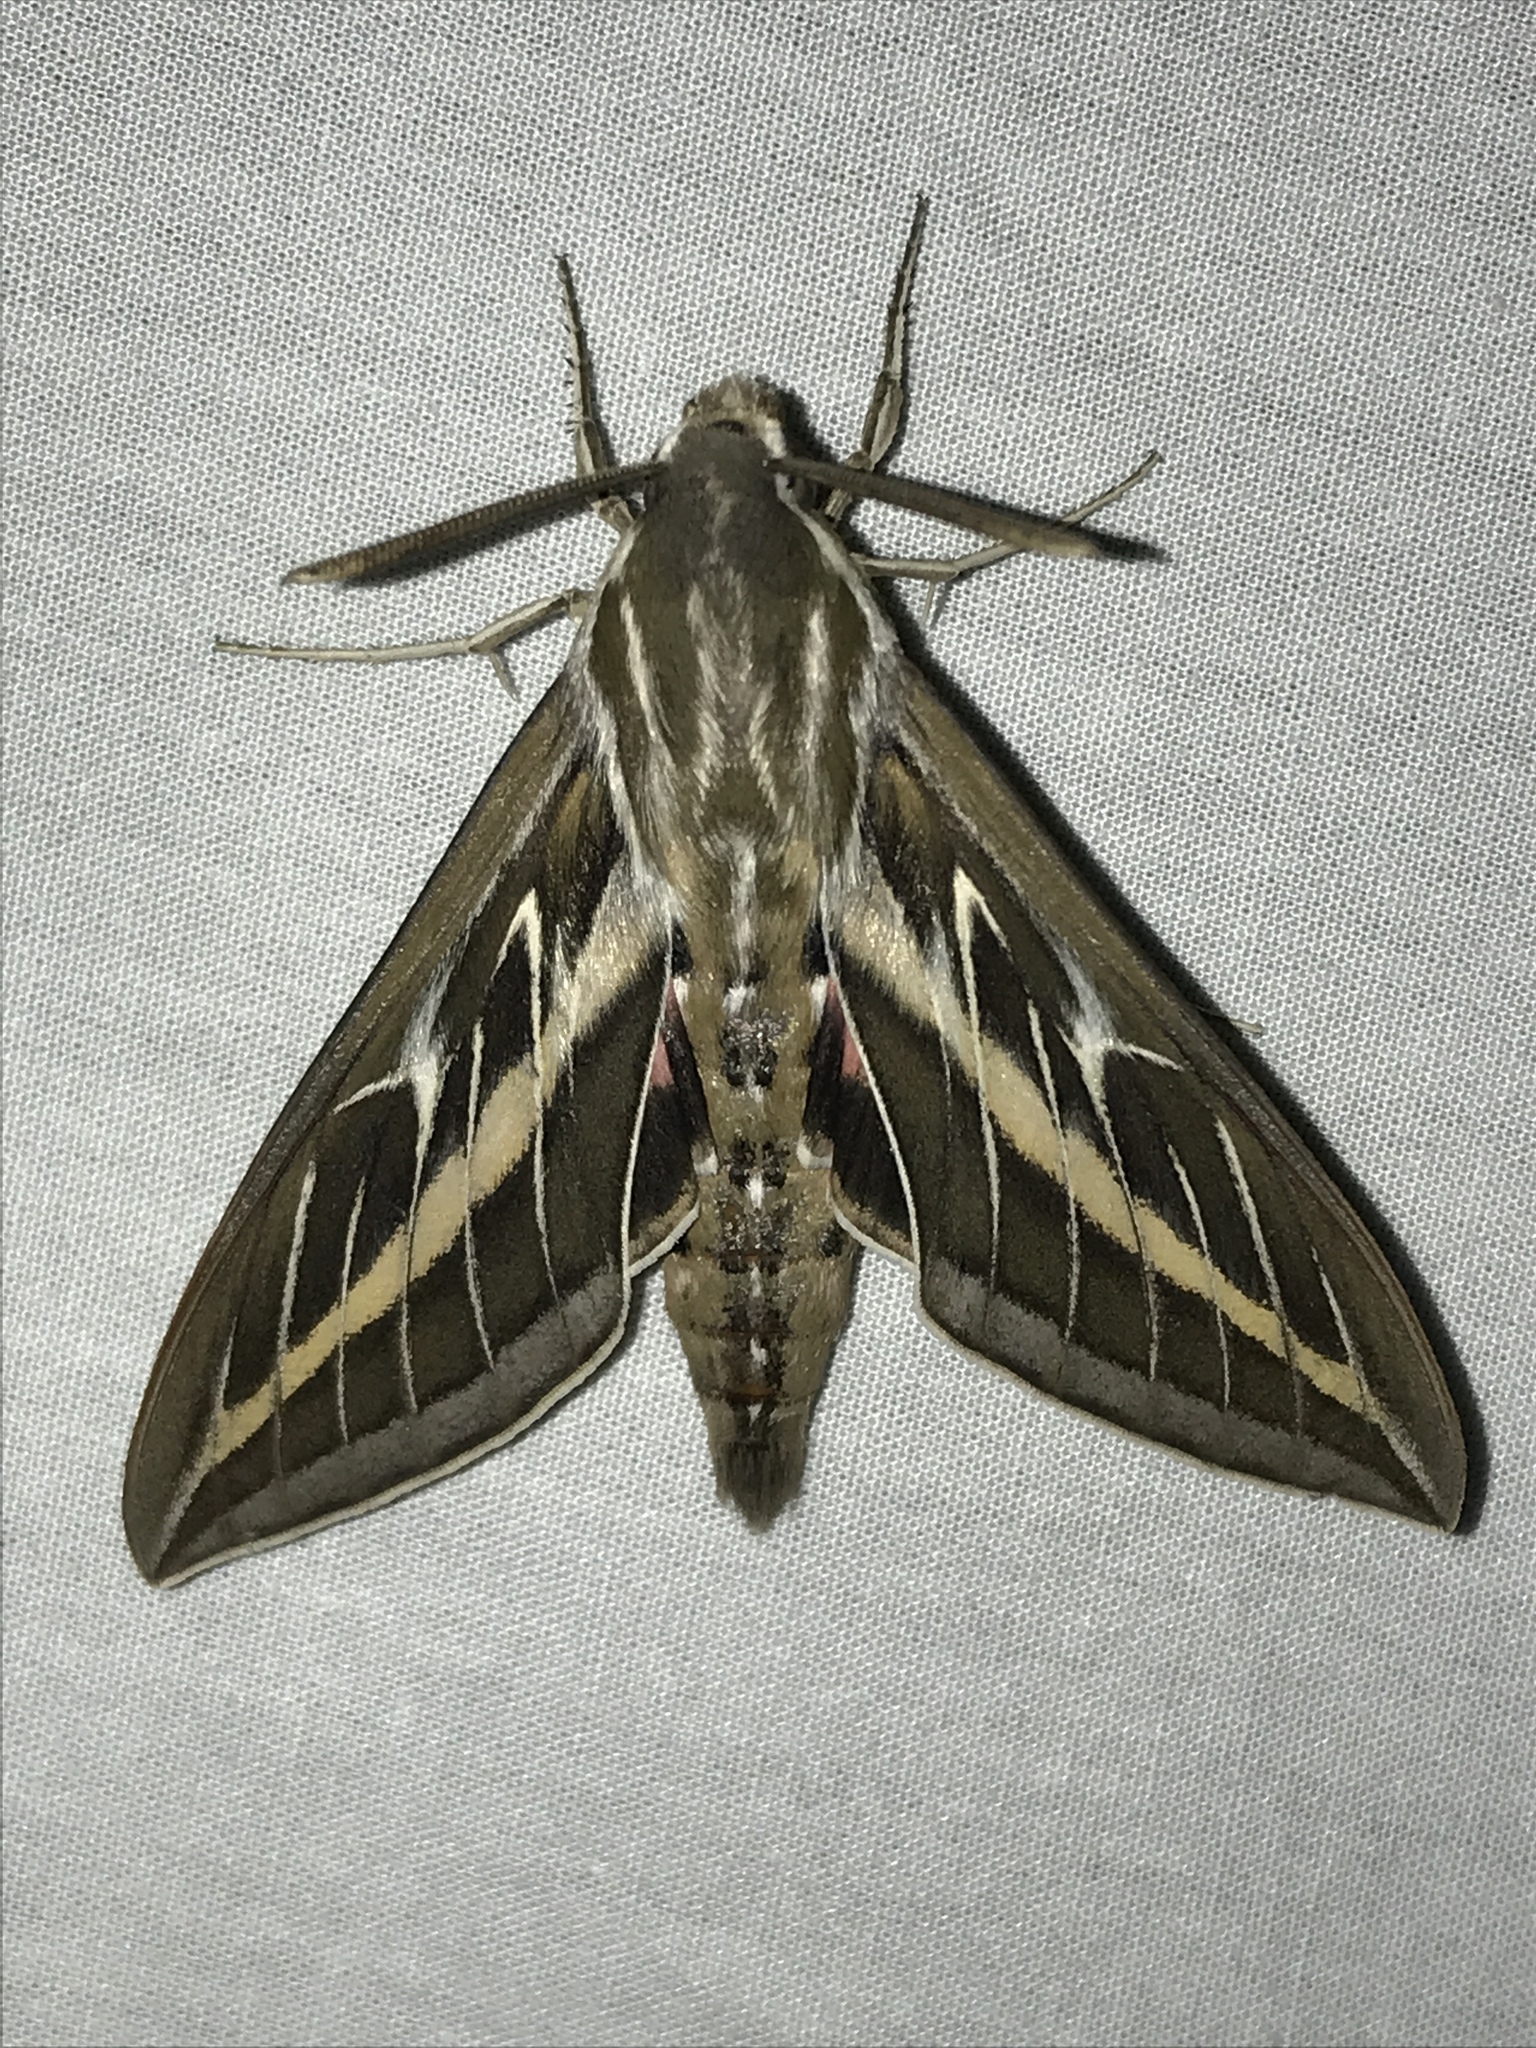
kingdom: Animalia
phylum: Arthropoda
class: Insecta
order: Lepidoptera
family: Sphingidae
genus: Hyles
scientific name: Hyles lineata
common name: White-lined sphinx
